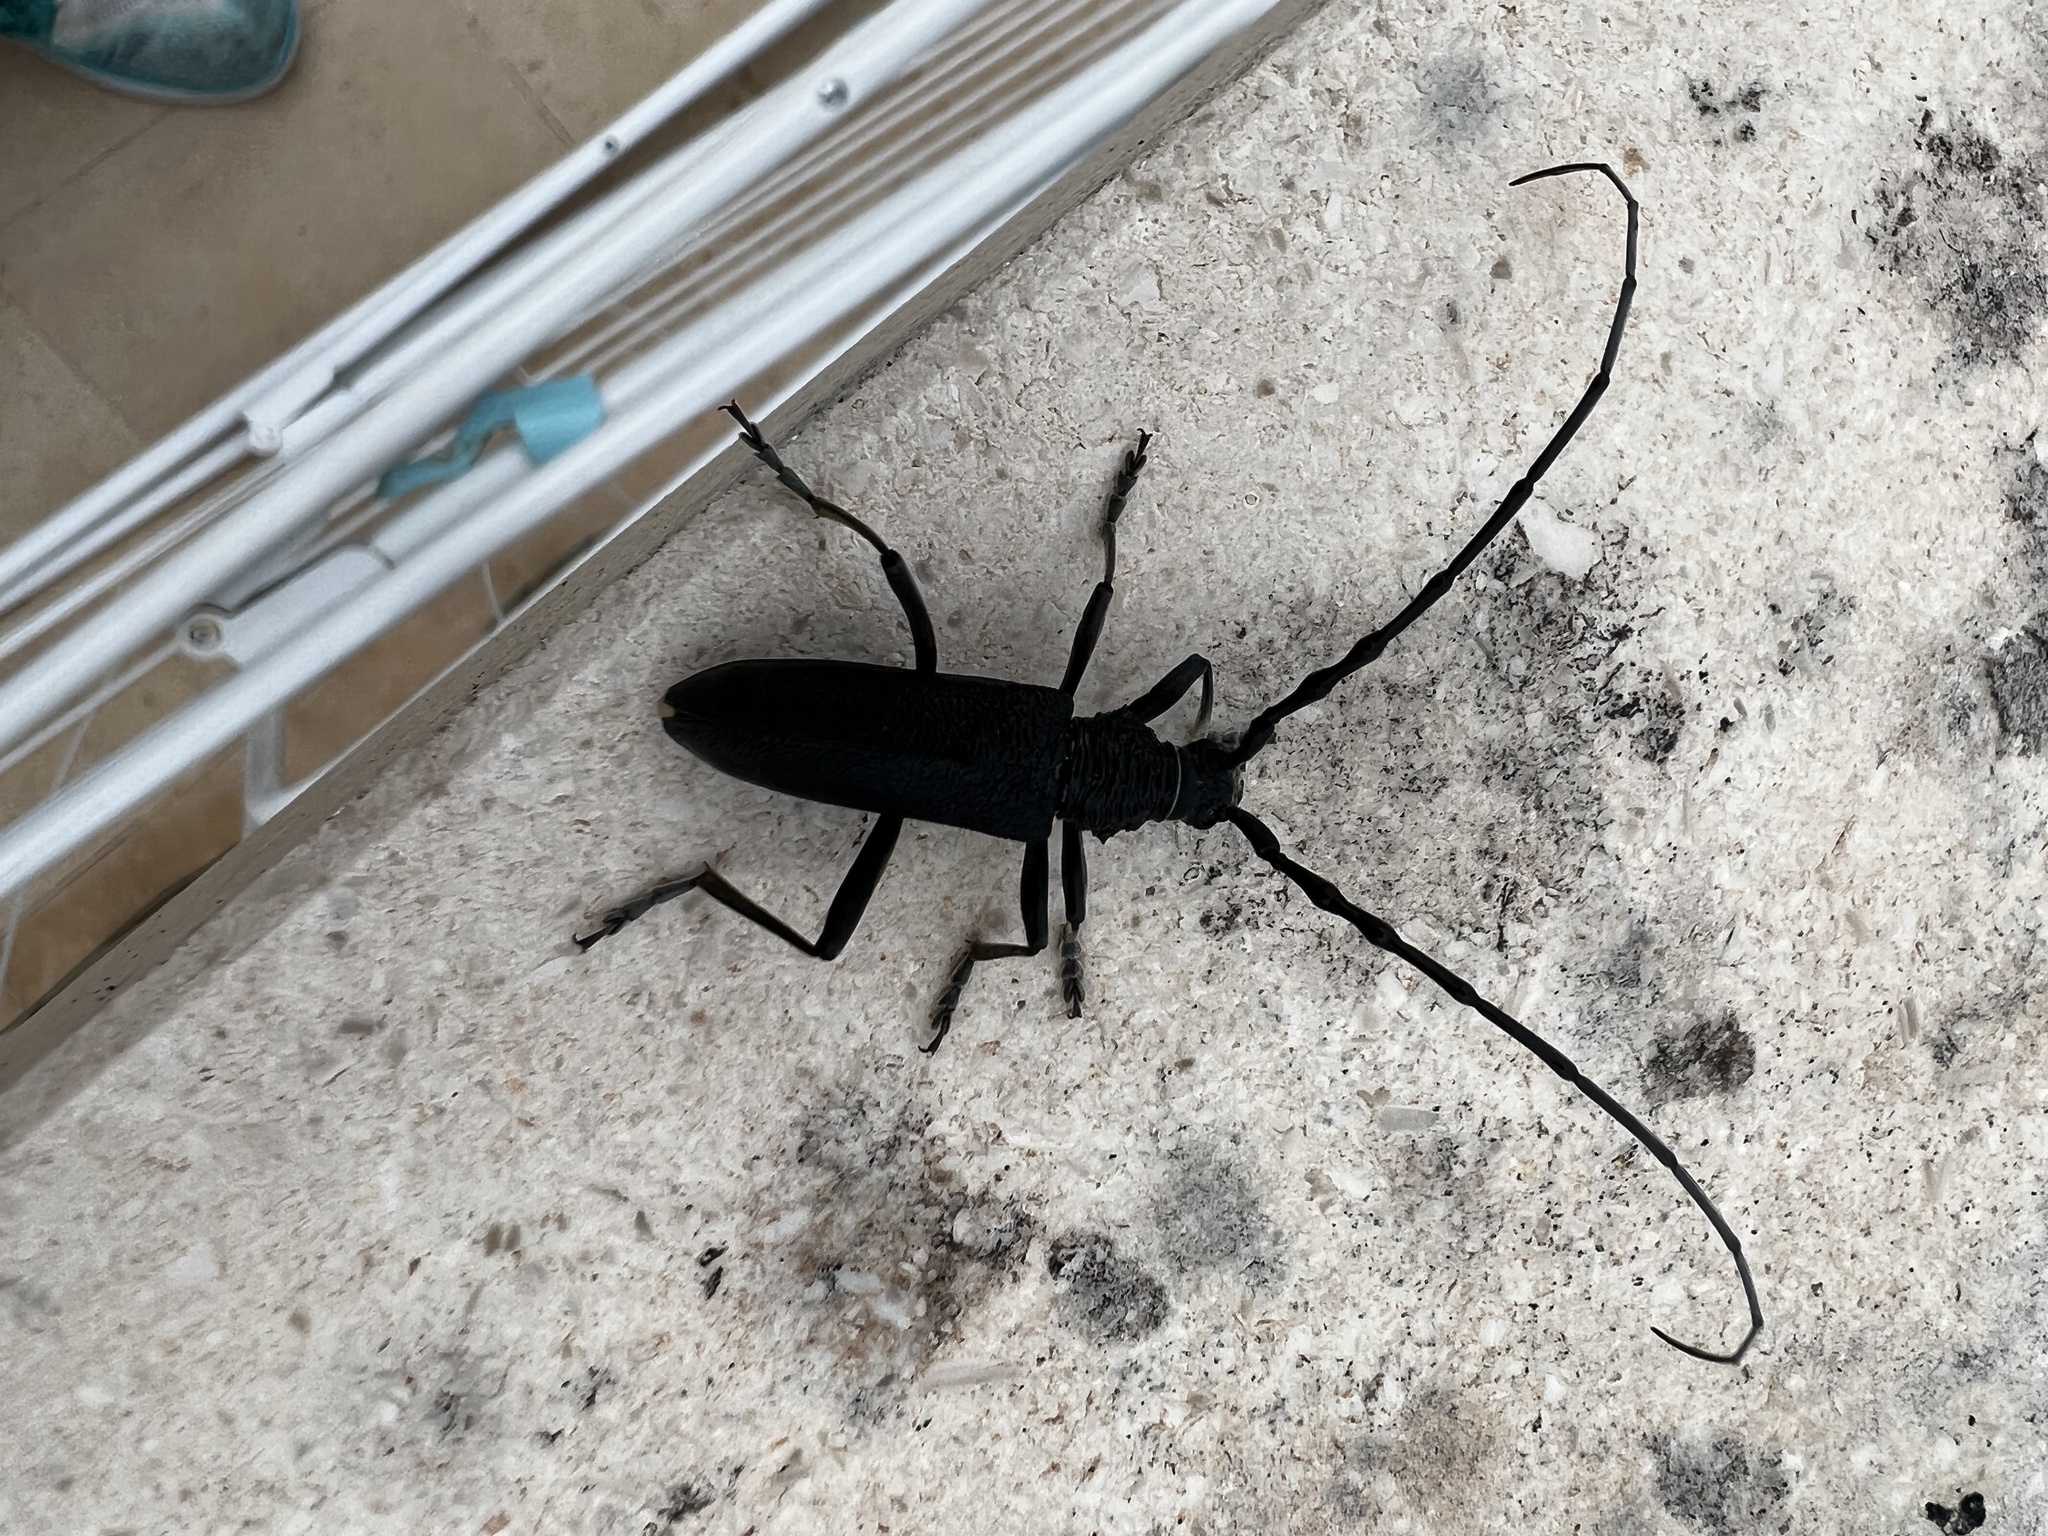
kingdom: Animalia
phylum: Arthropoda
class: Insecta
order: Coleoptera
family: Cerambycidae
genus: Cerambyx
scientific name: Cerambyx scopolii
